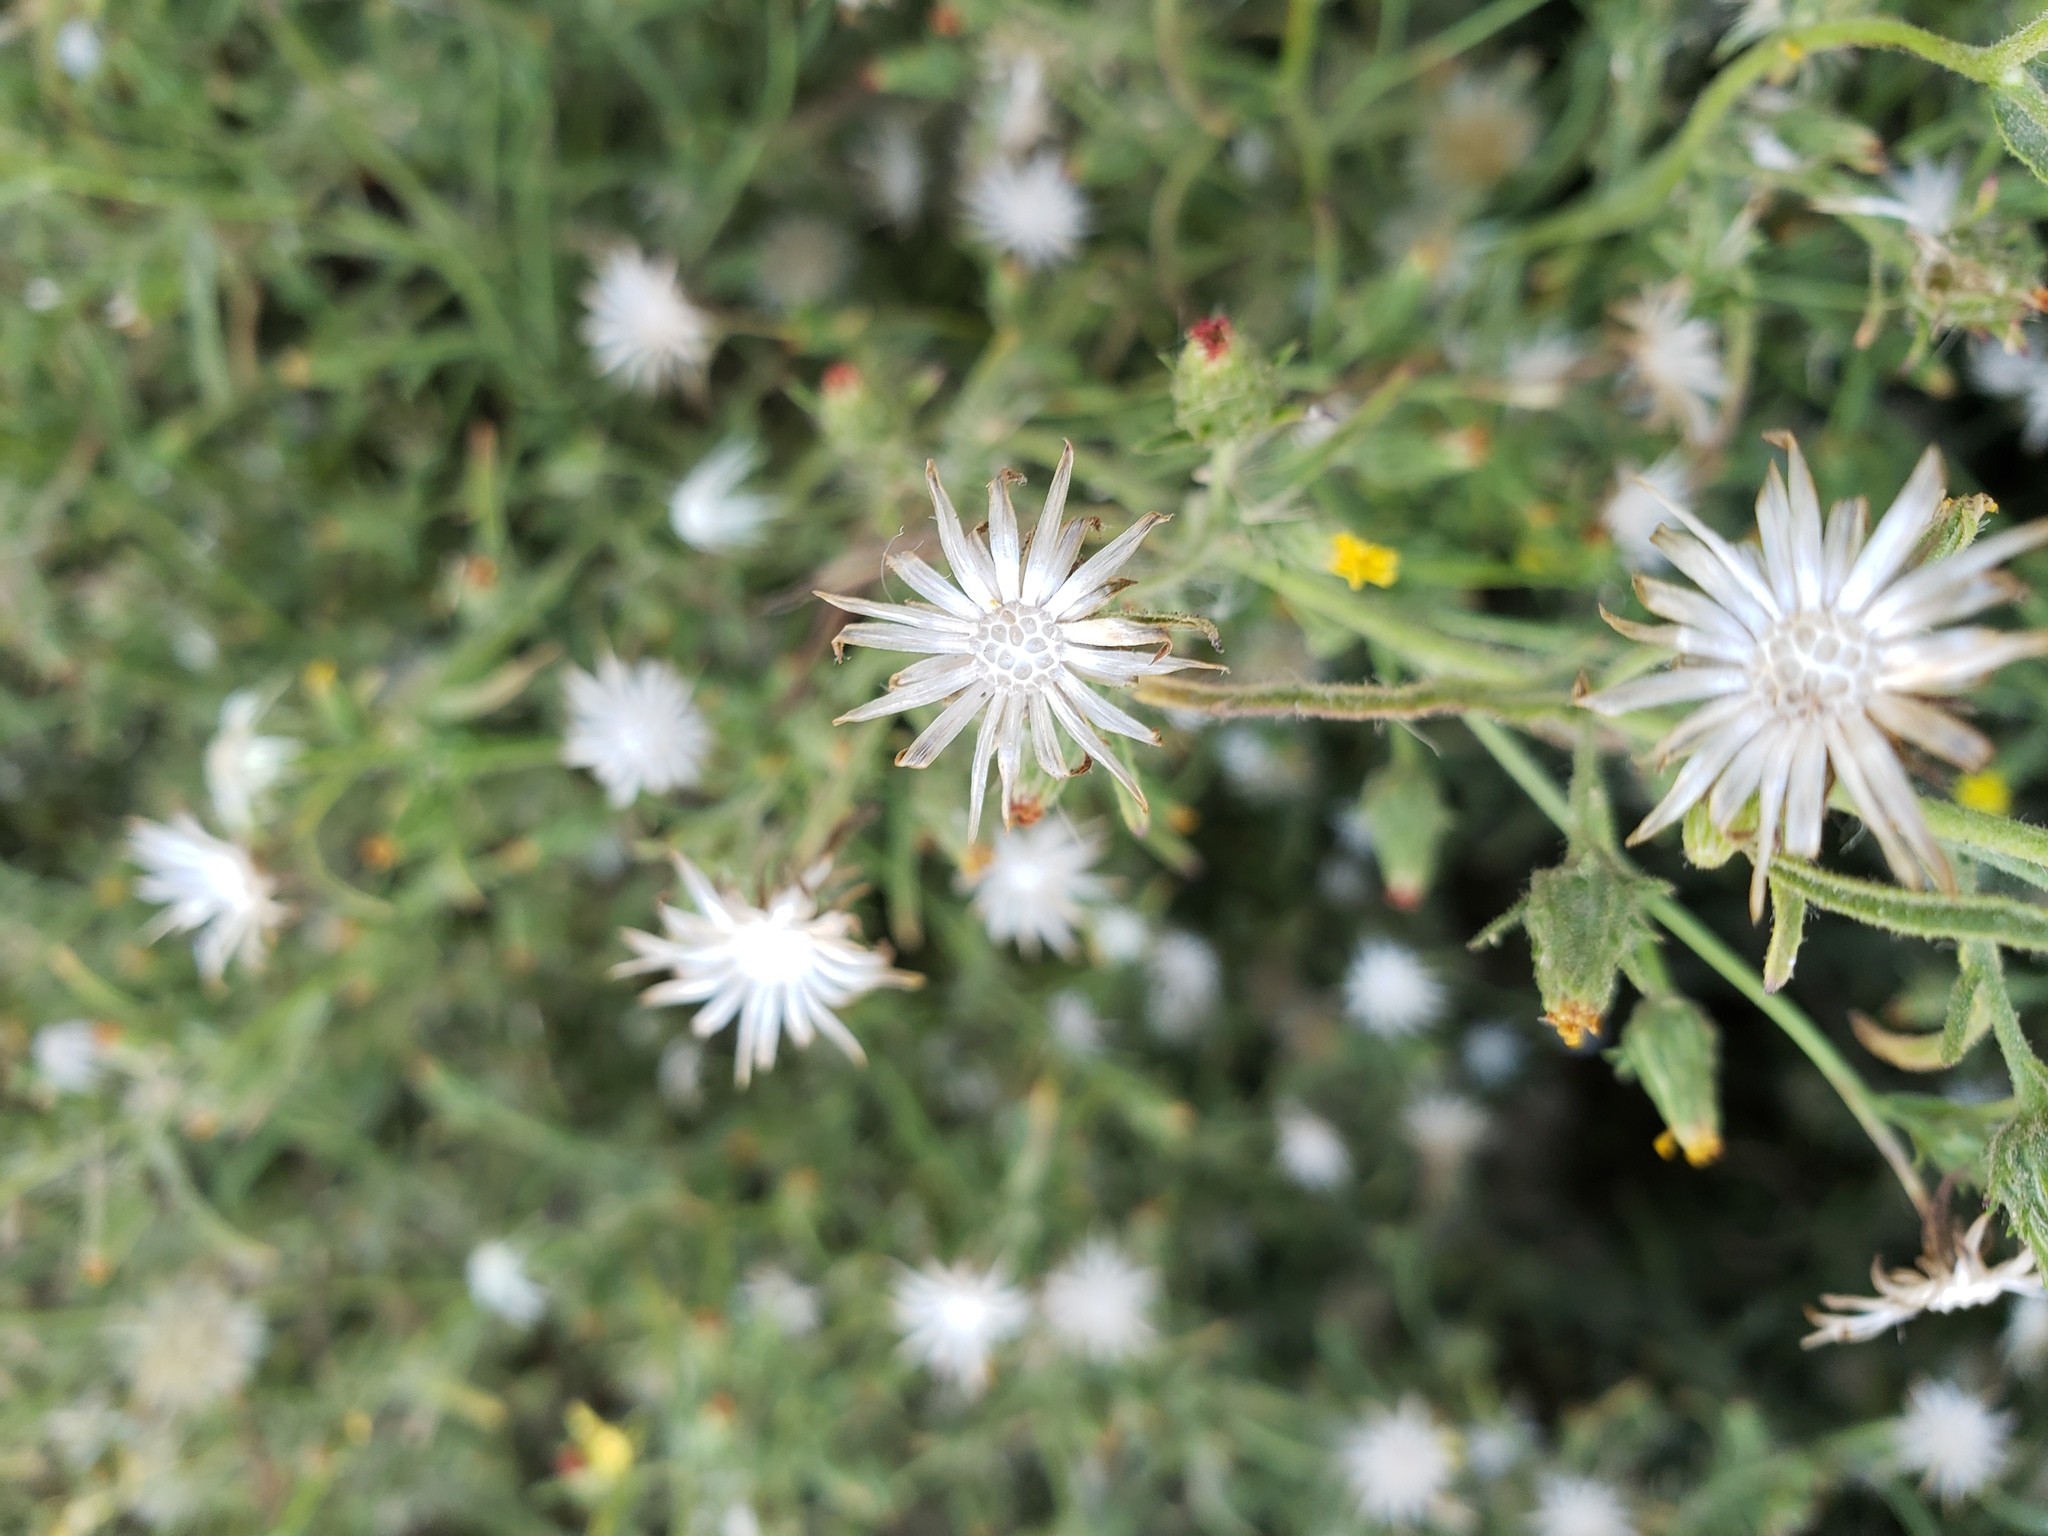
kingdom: Plantae
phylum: Tracheophyta
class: Magnoliopsida
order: Asterales
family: Asteraceae
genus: Dittrichia
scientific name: Dittrichia graveolens
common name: Stinking fleabane
